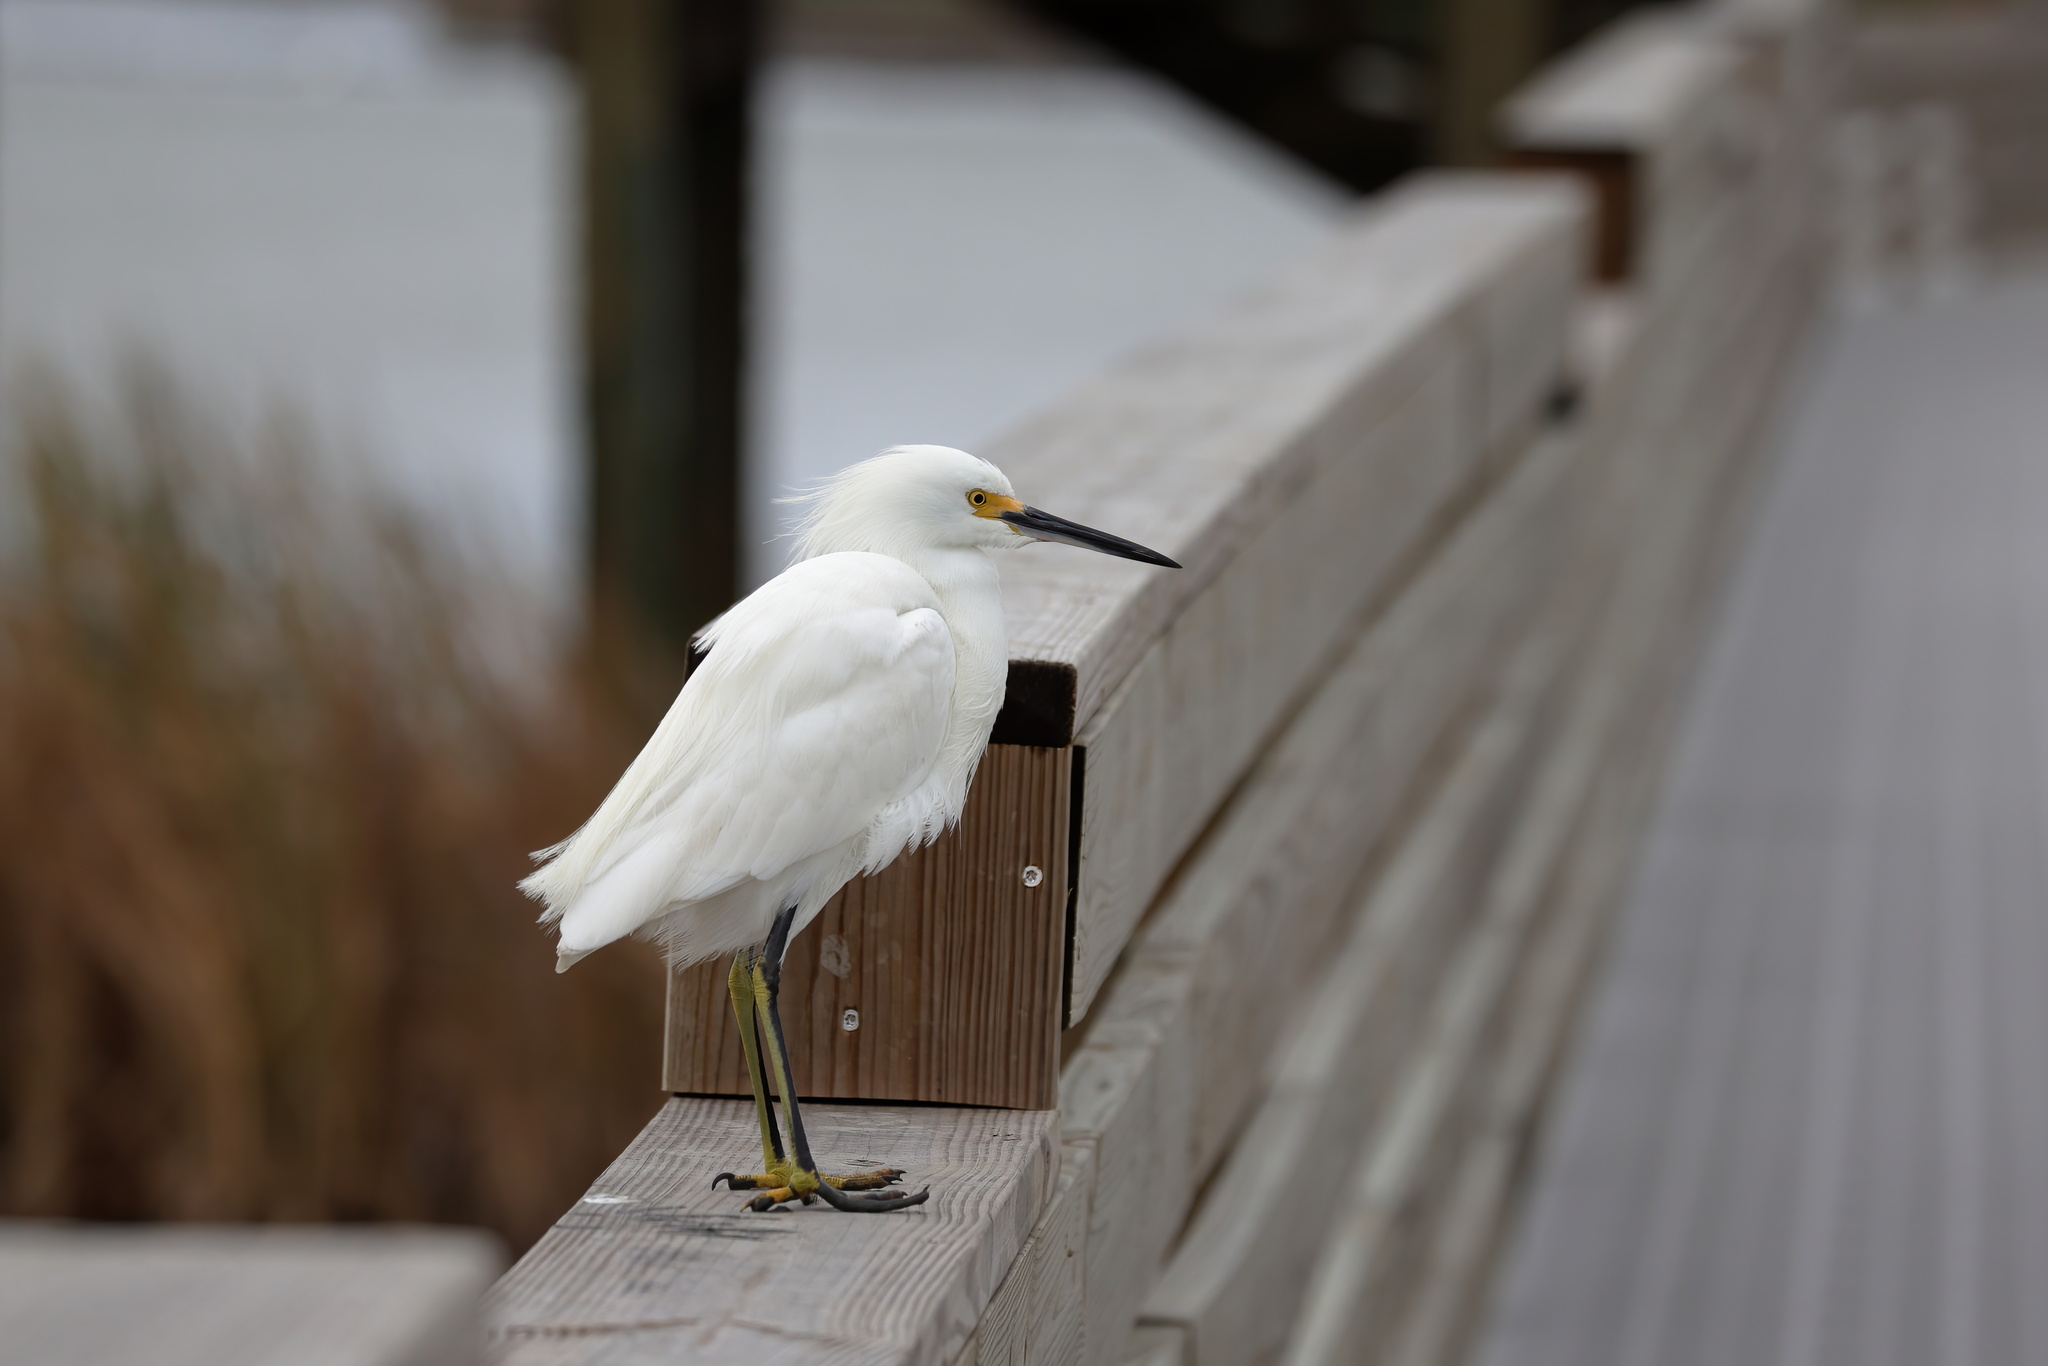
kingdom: Animalia
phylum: Chordata
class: Aves
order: Pelecaniformes
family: Ardeidae
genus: Egretta
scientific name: Egretta thula
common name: Snowy egret
